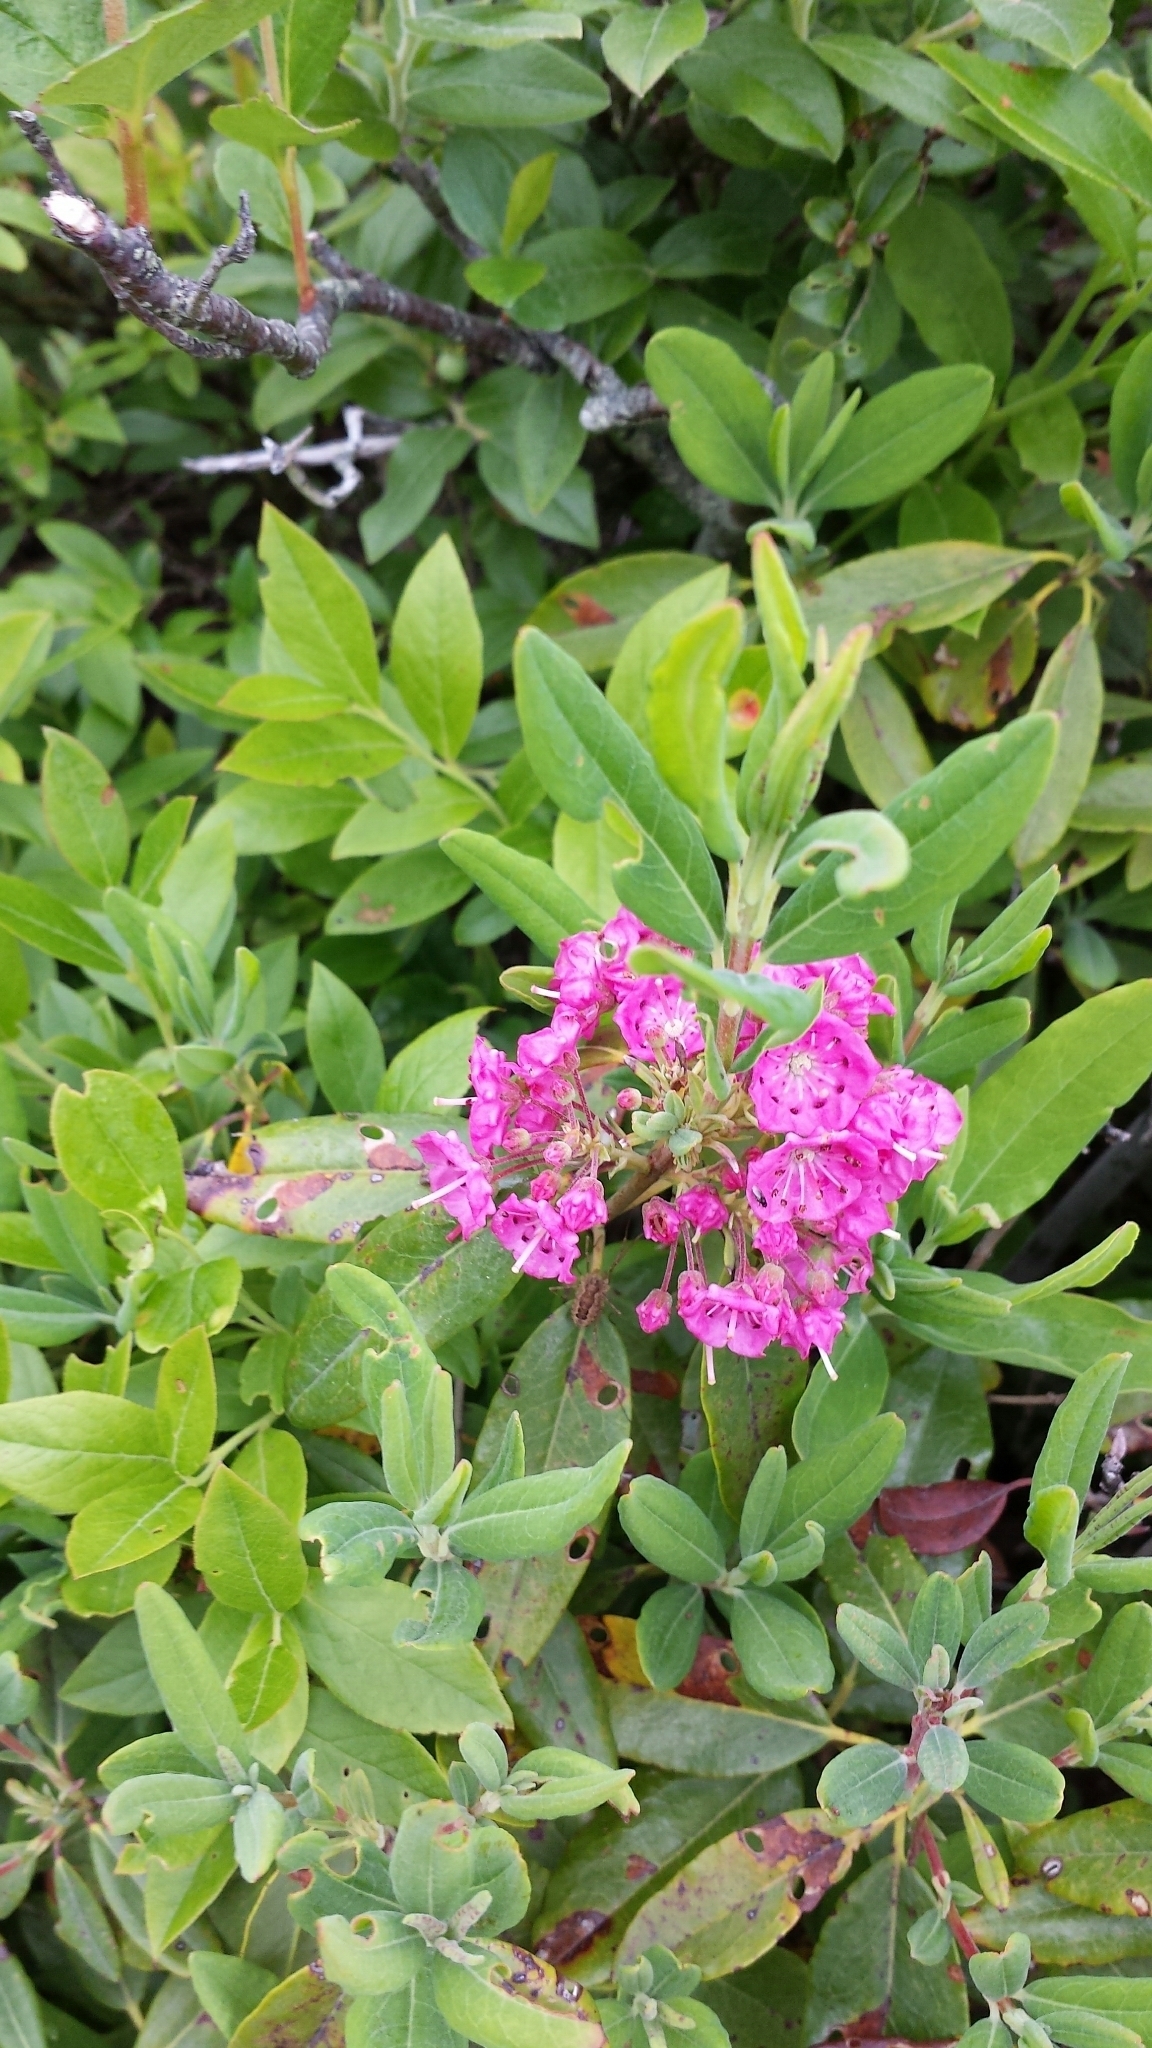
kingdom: Plantae
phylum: Tracheophyta
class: Magnoliopsida
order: Ericales
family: Ericaceae
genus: Kalmia
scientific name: Kalmia angustifolia
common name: Sheep-laurel
